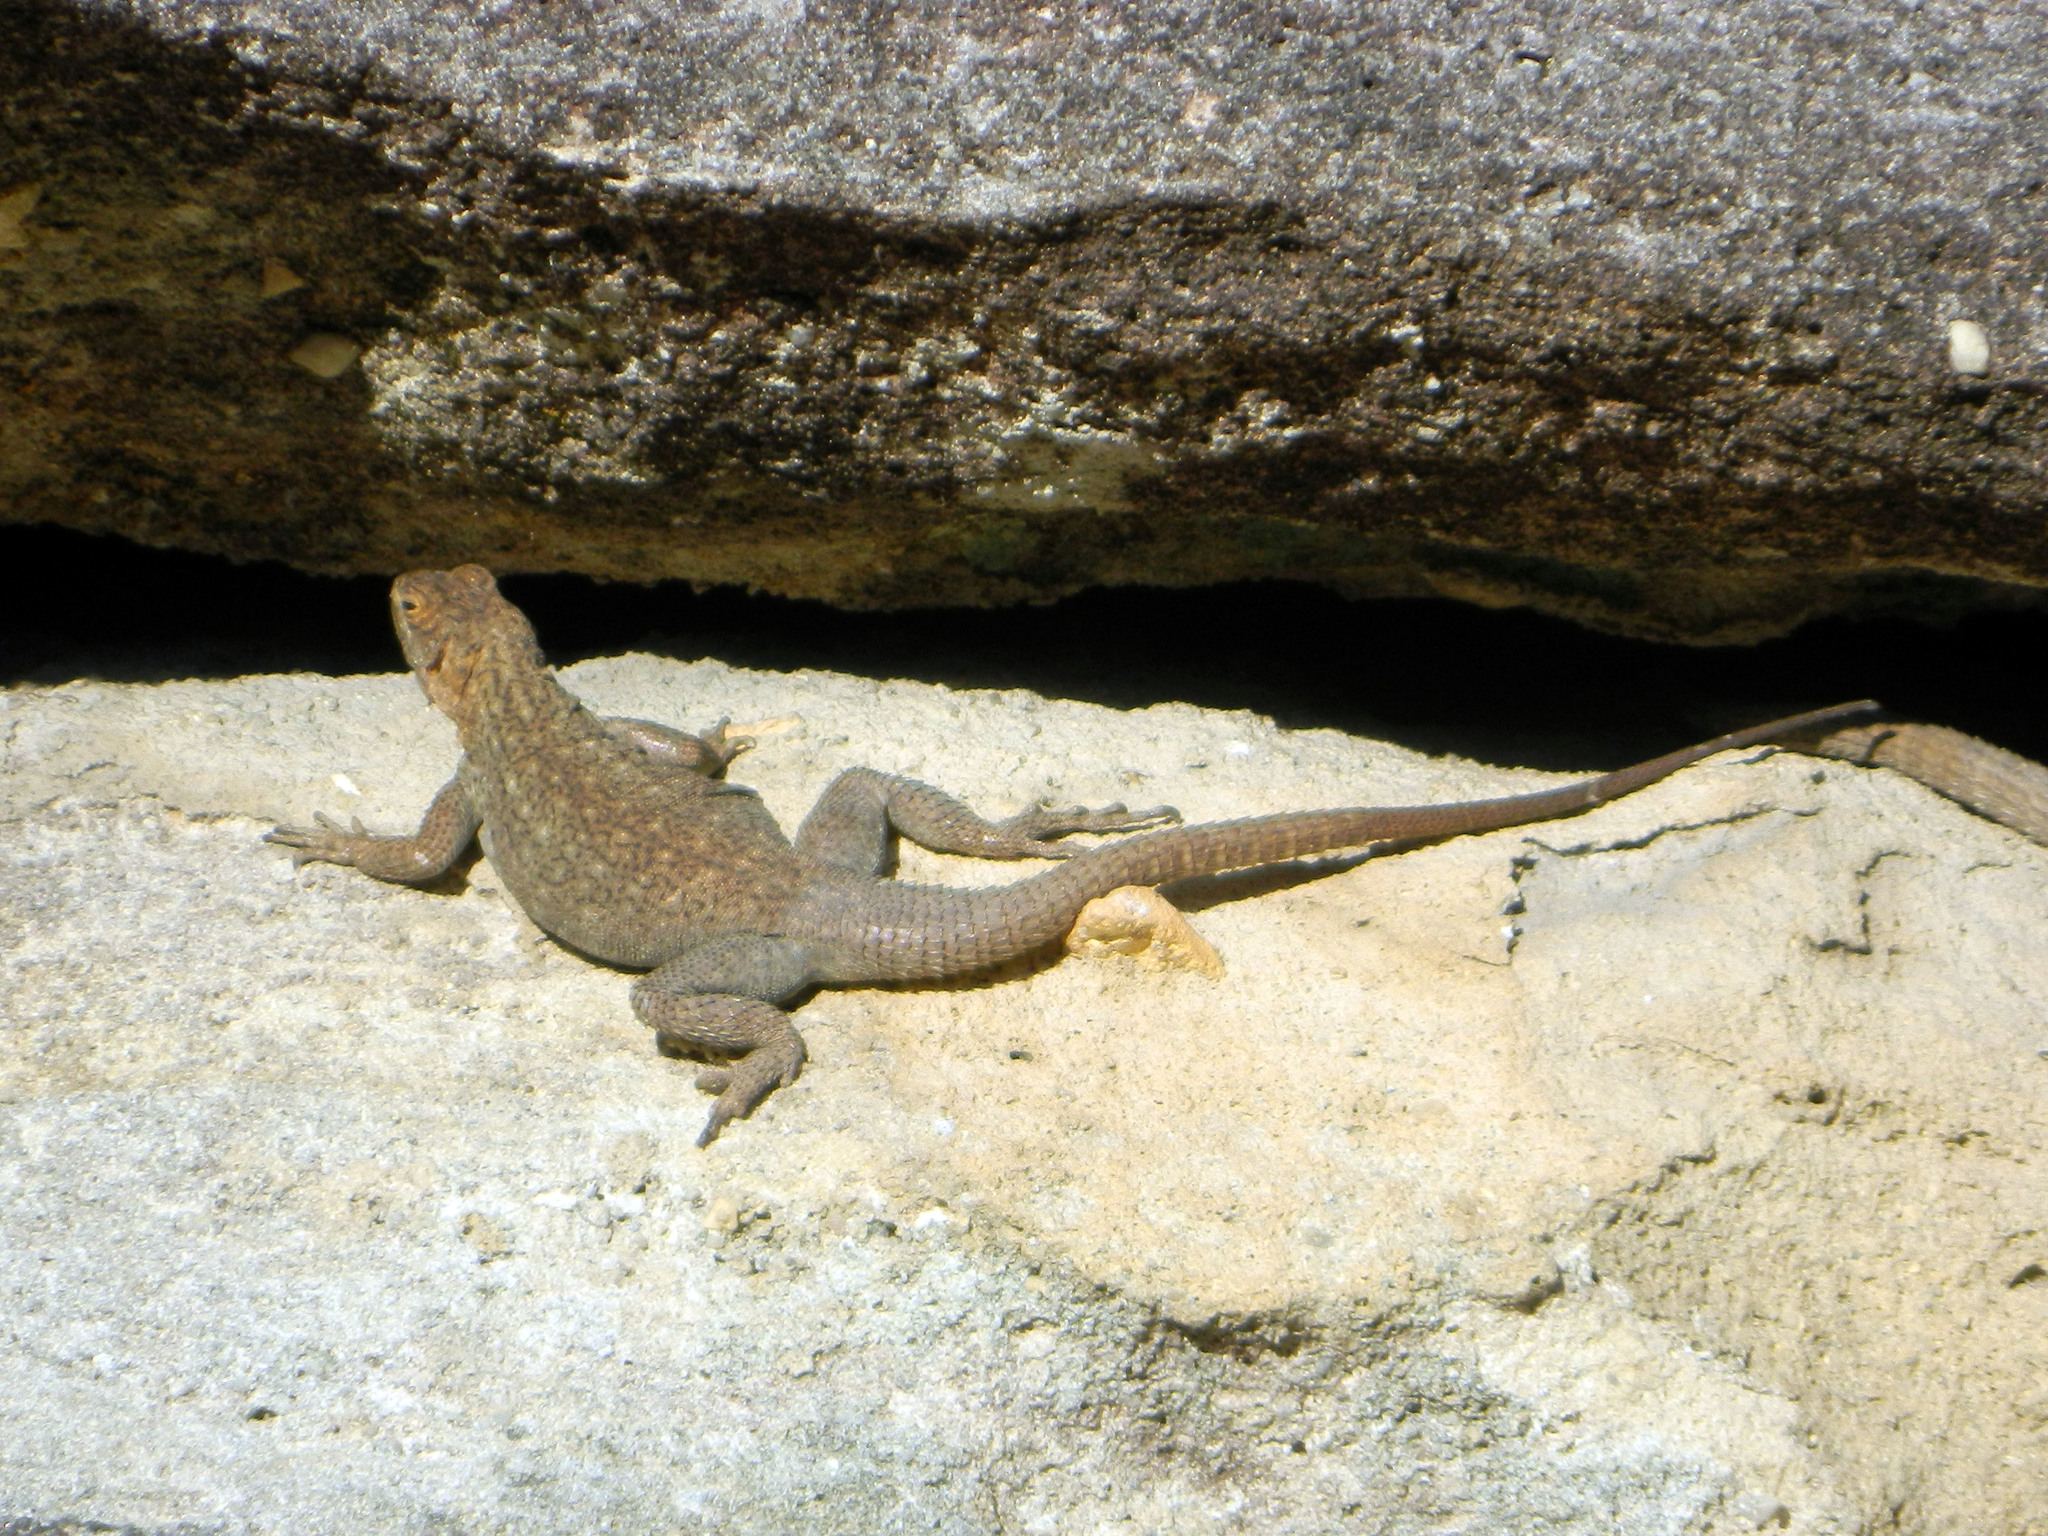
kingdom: Animalia
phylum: Chordata
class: Squamata
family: Opluridae
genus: Oplurus
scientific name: Oplurus quadrimaculatus
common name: Duméril's madagascar swift
